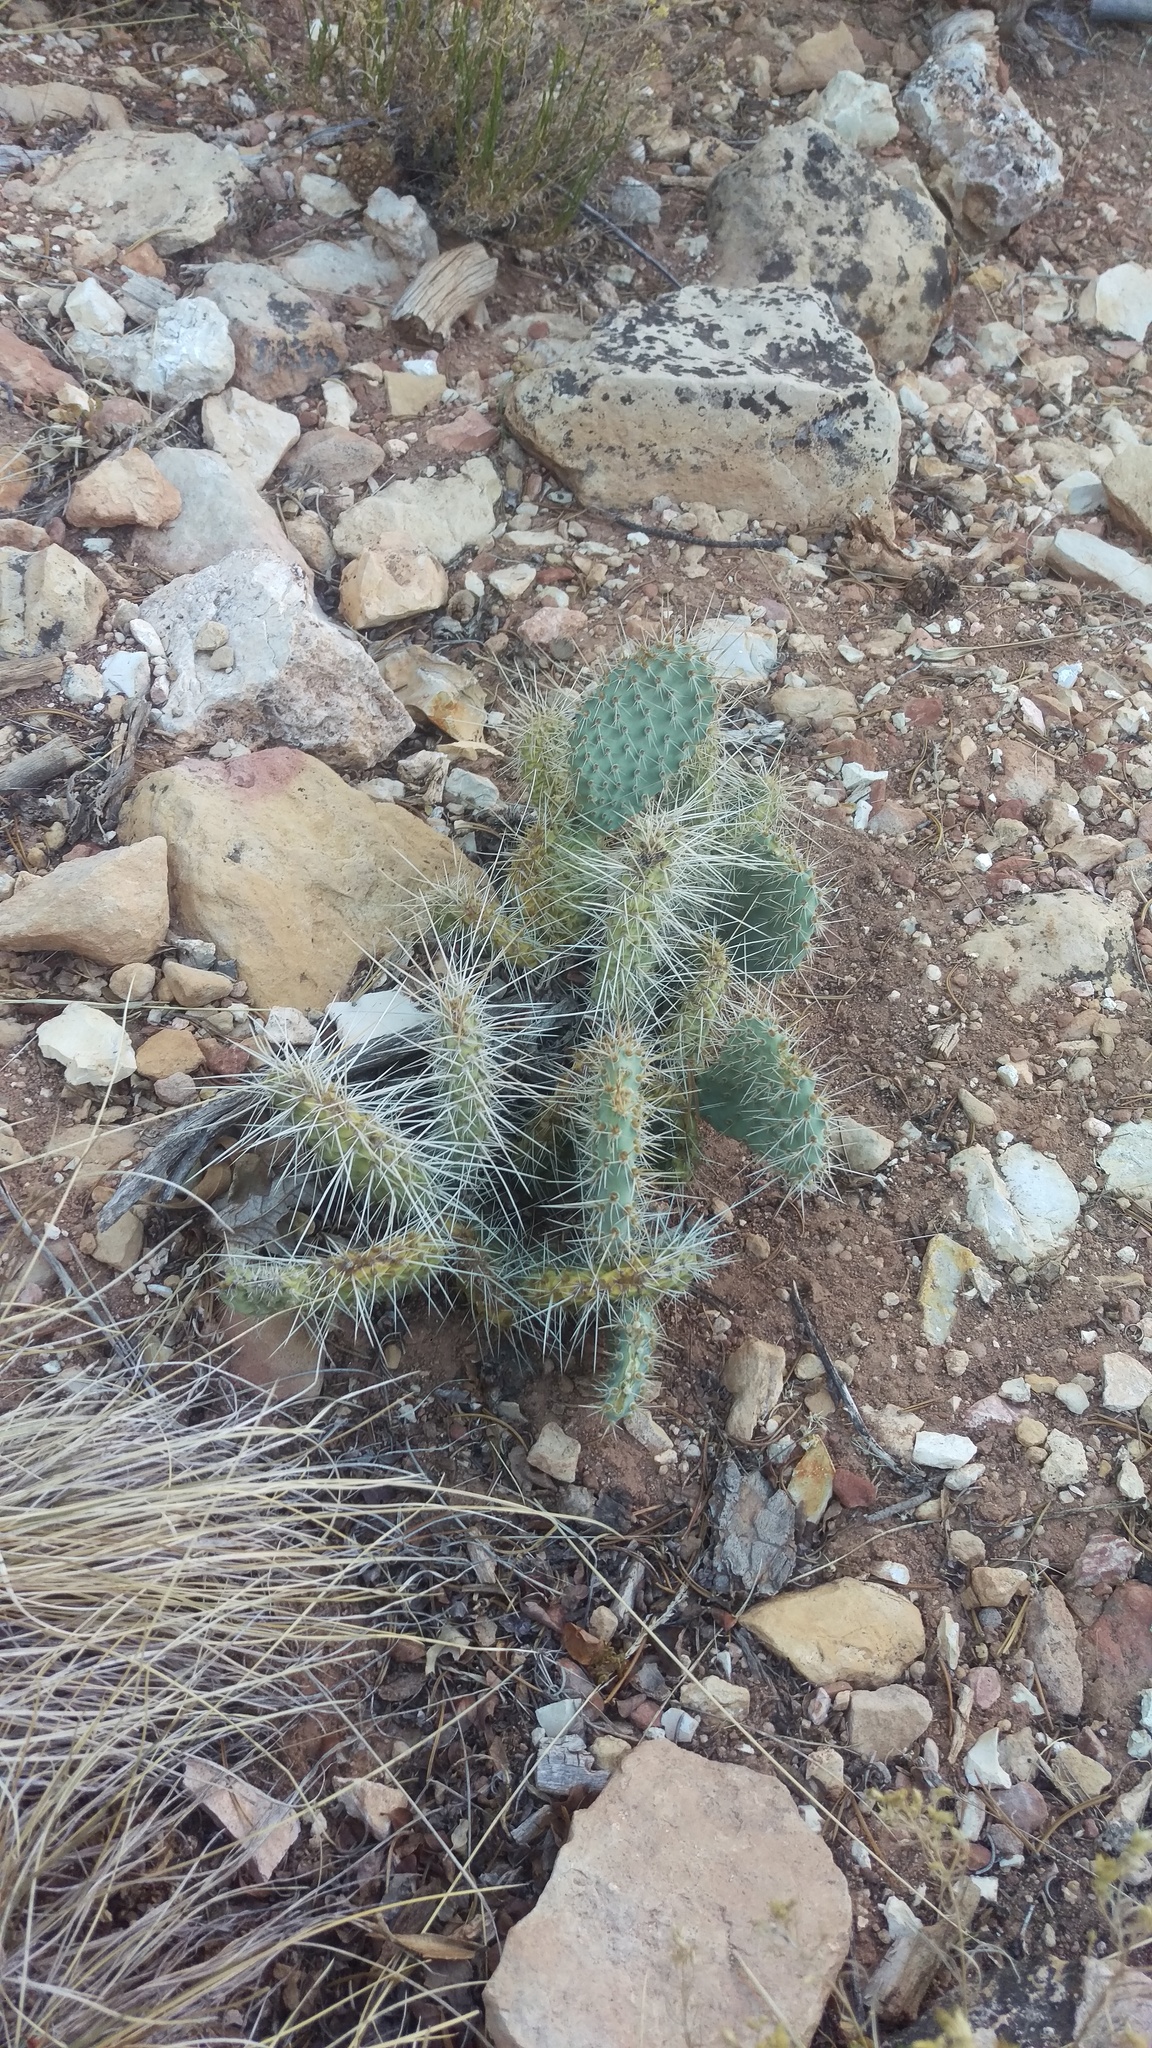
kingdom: Plantae
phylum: Tracheophyta
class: Magnoliopsida
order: Caryophyllales
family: Cactaceae
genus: Opuntia
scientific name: Opuntia polyacantha
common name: Plains prickly-pear
